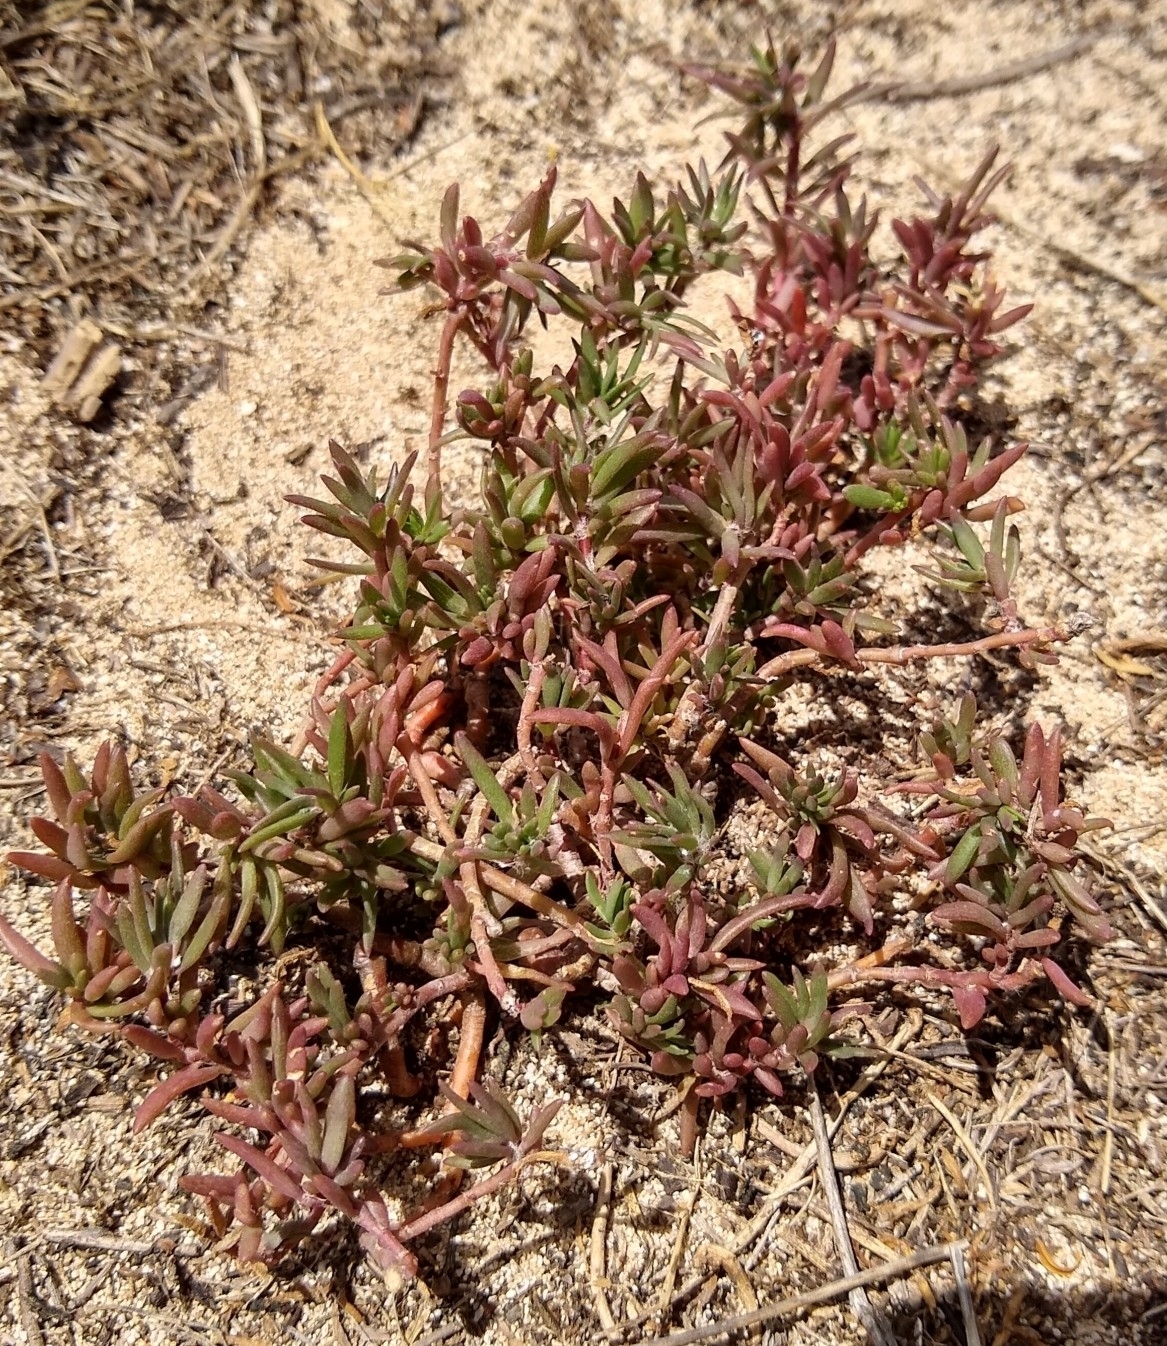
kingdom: Plantae
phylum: Tracheophyta
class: Magnoliopsida
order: Caryophyllales
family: Portulacaceae
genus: Portulaca
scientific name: Portulaca pilosa
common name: Kiss me quick
